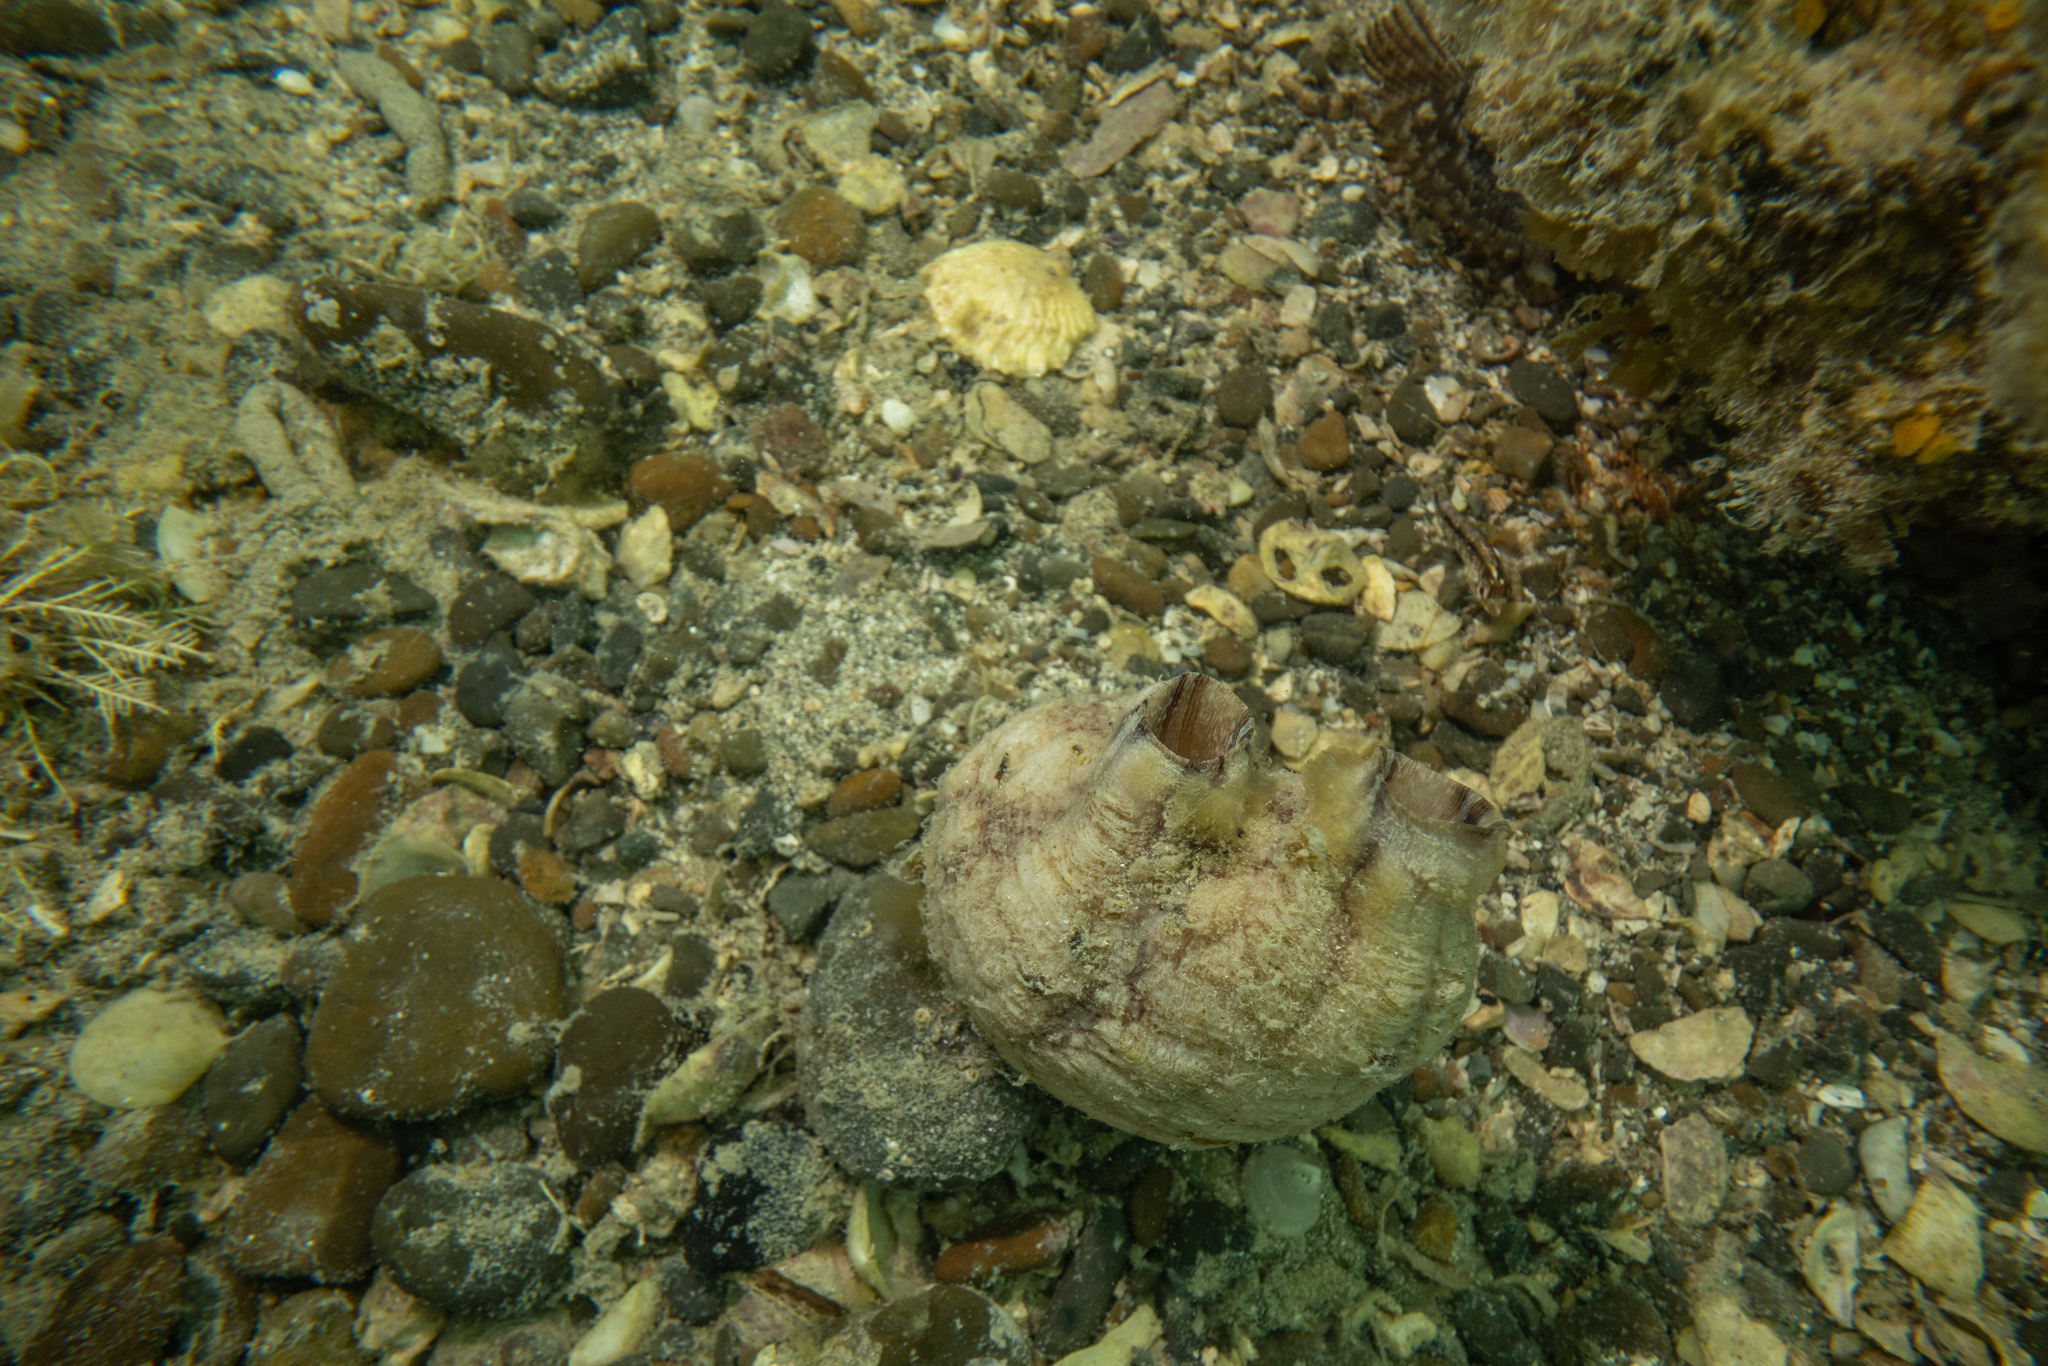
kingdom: Animalia
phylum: Chordata
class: Ascidiacea
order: Stolidobranchia
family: Styelidae
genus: Styela
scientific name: Styela plicata
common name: Pleated tunicate
